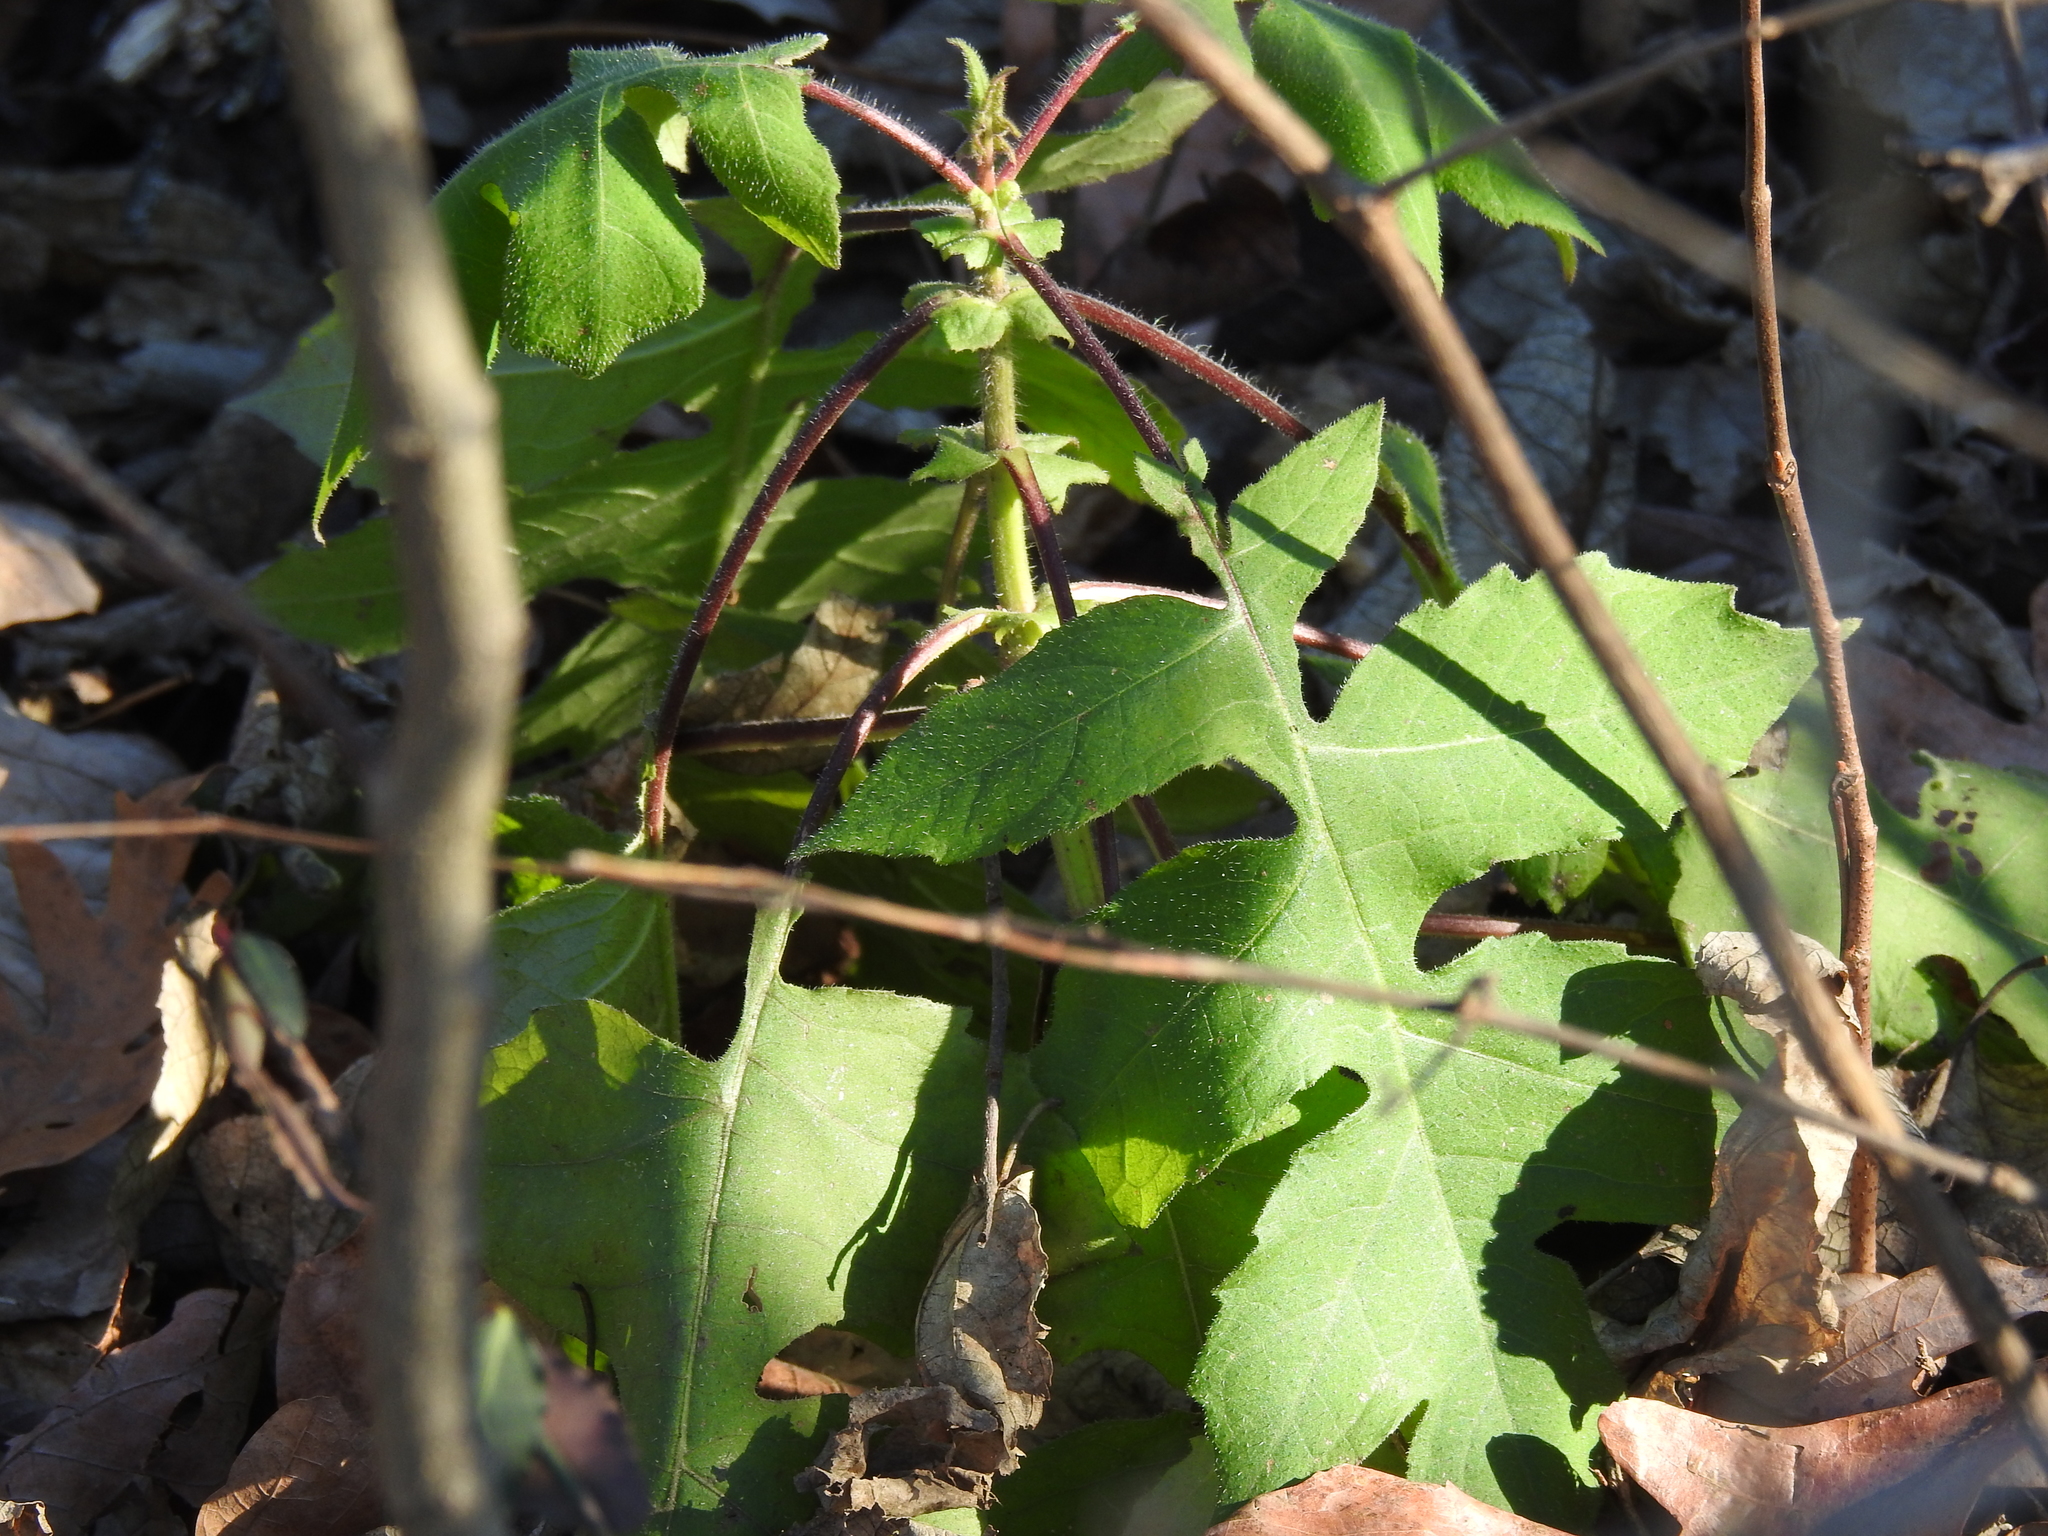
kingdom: Plantae
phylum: Tracheophyta
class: Magnoliopsida
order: Asterales
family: Asteraceae
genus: Polymnia
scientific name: Polymnia canadensis
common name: Pale-flowered leafcup
